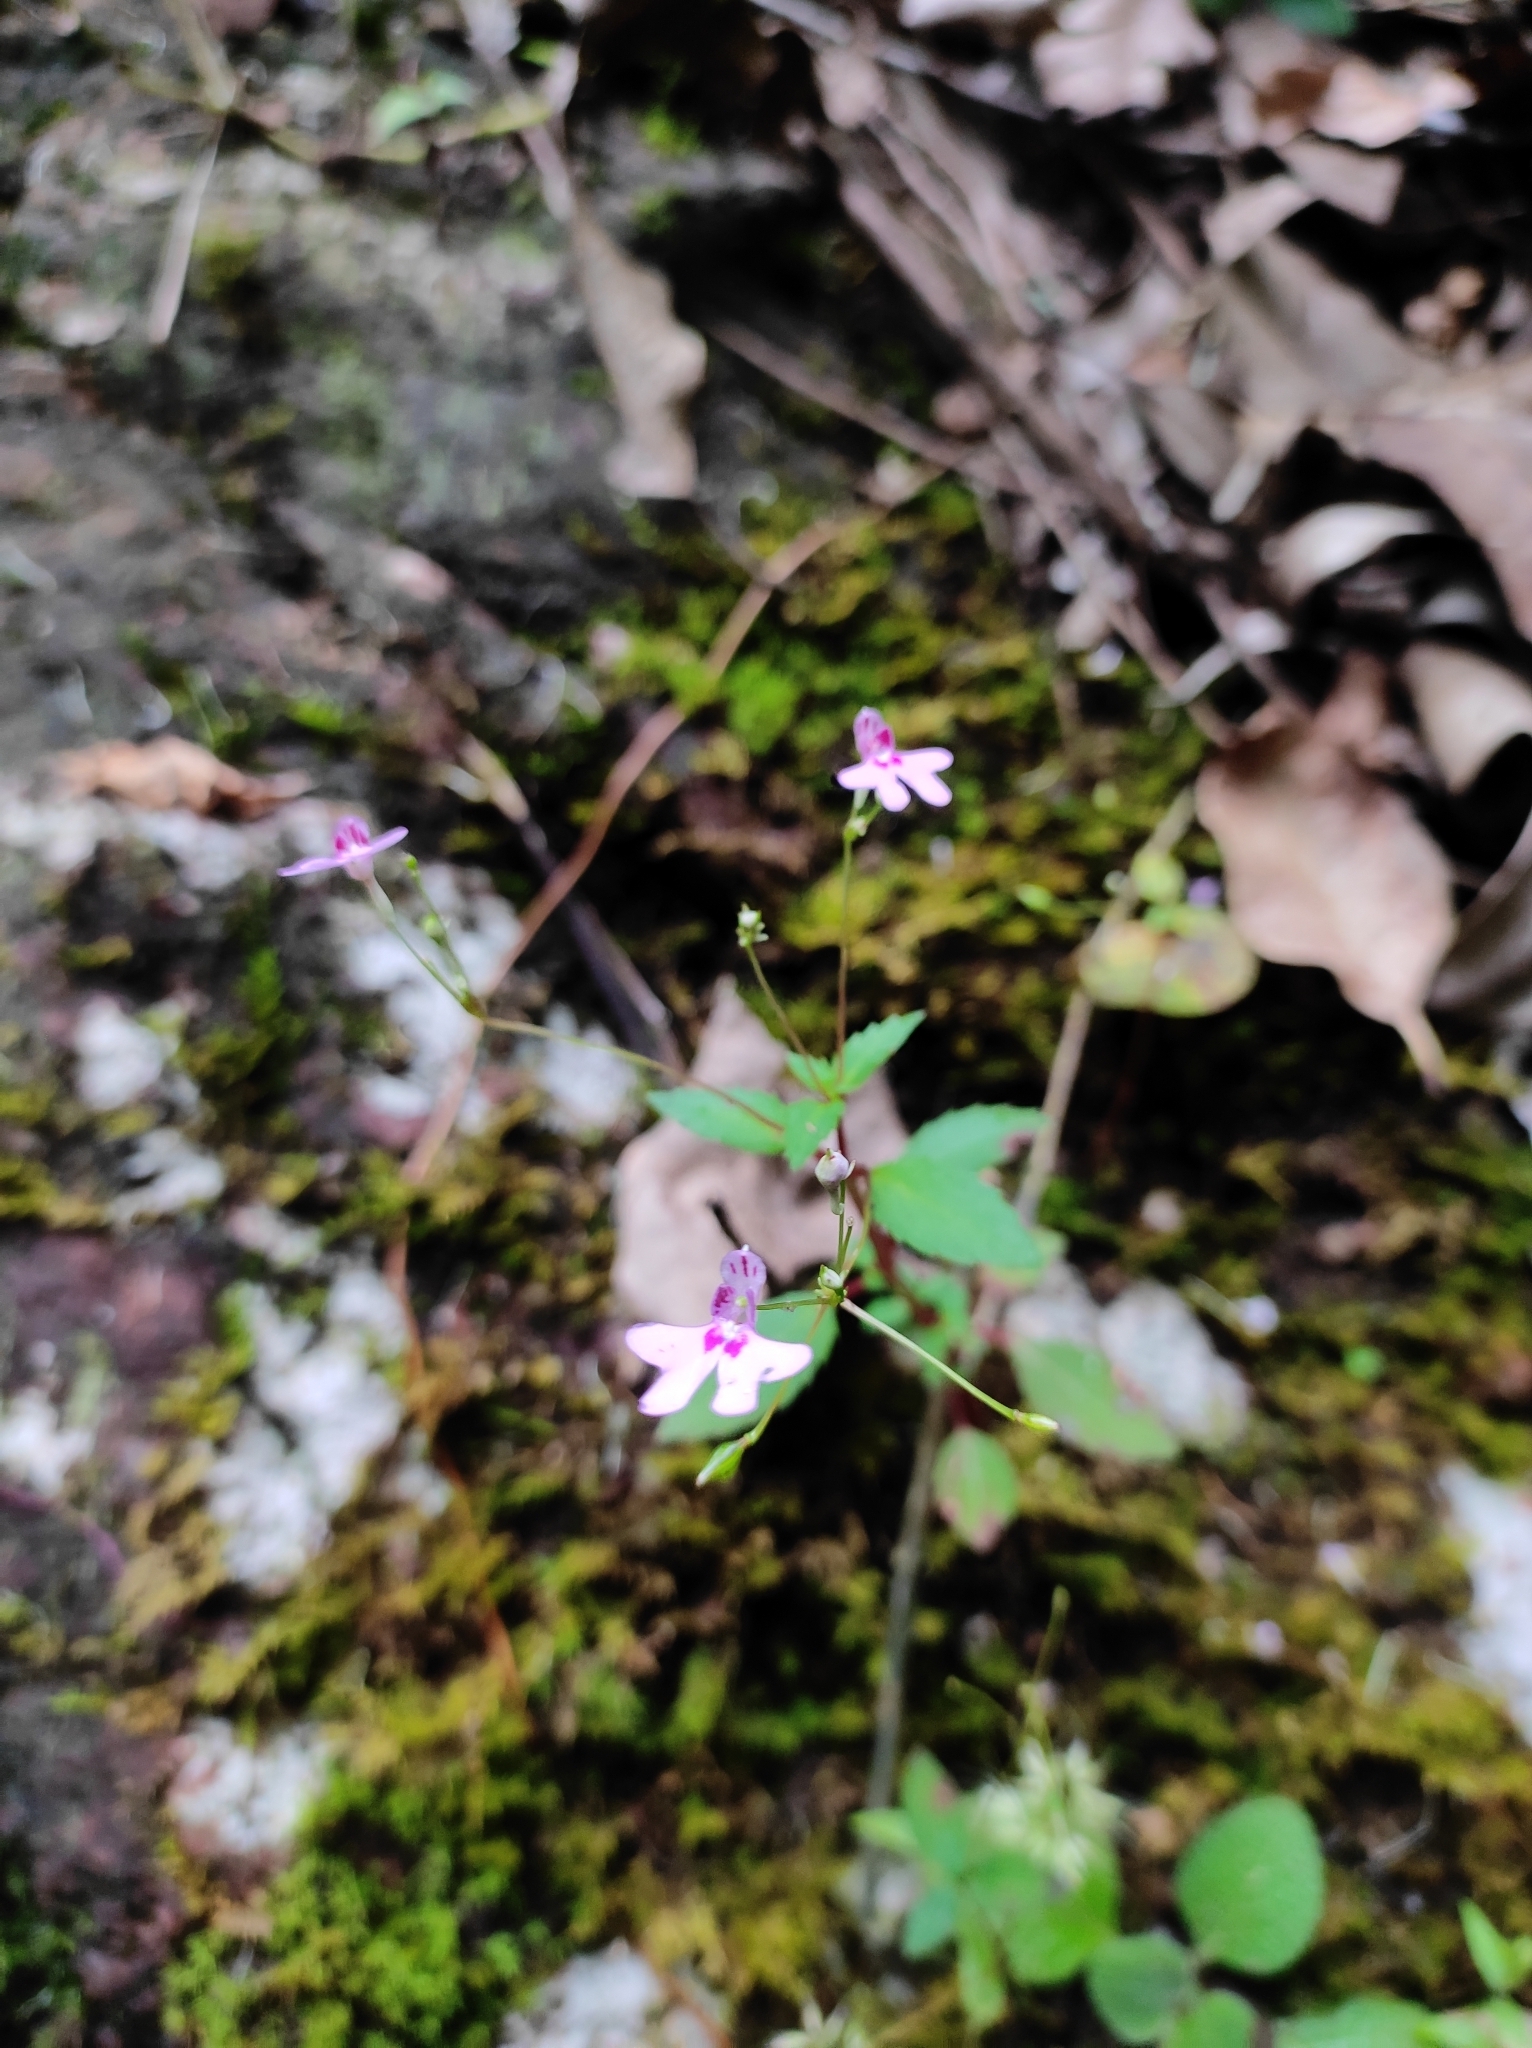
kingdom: Plantae
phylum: Tracheophyta
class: Magnoliopsida
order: Ericales
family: Balsaminaceae
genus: Impatiens
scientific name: Impatiens goughii
